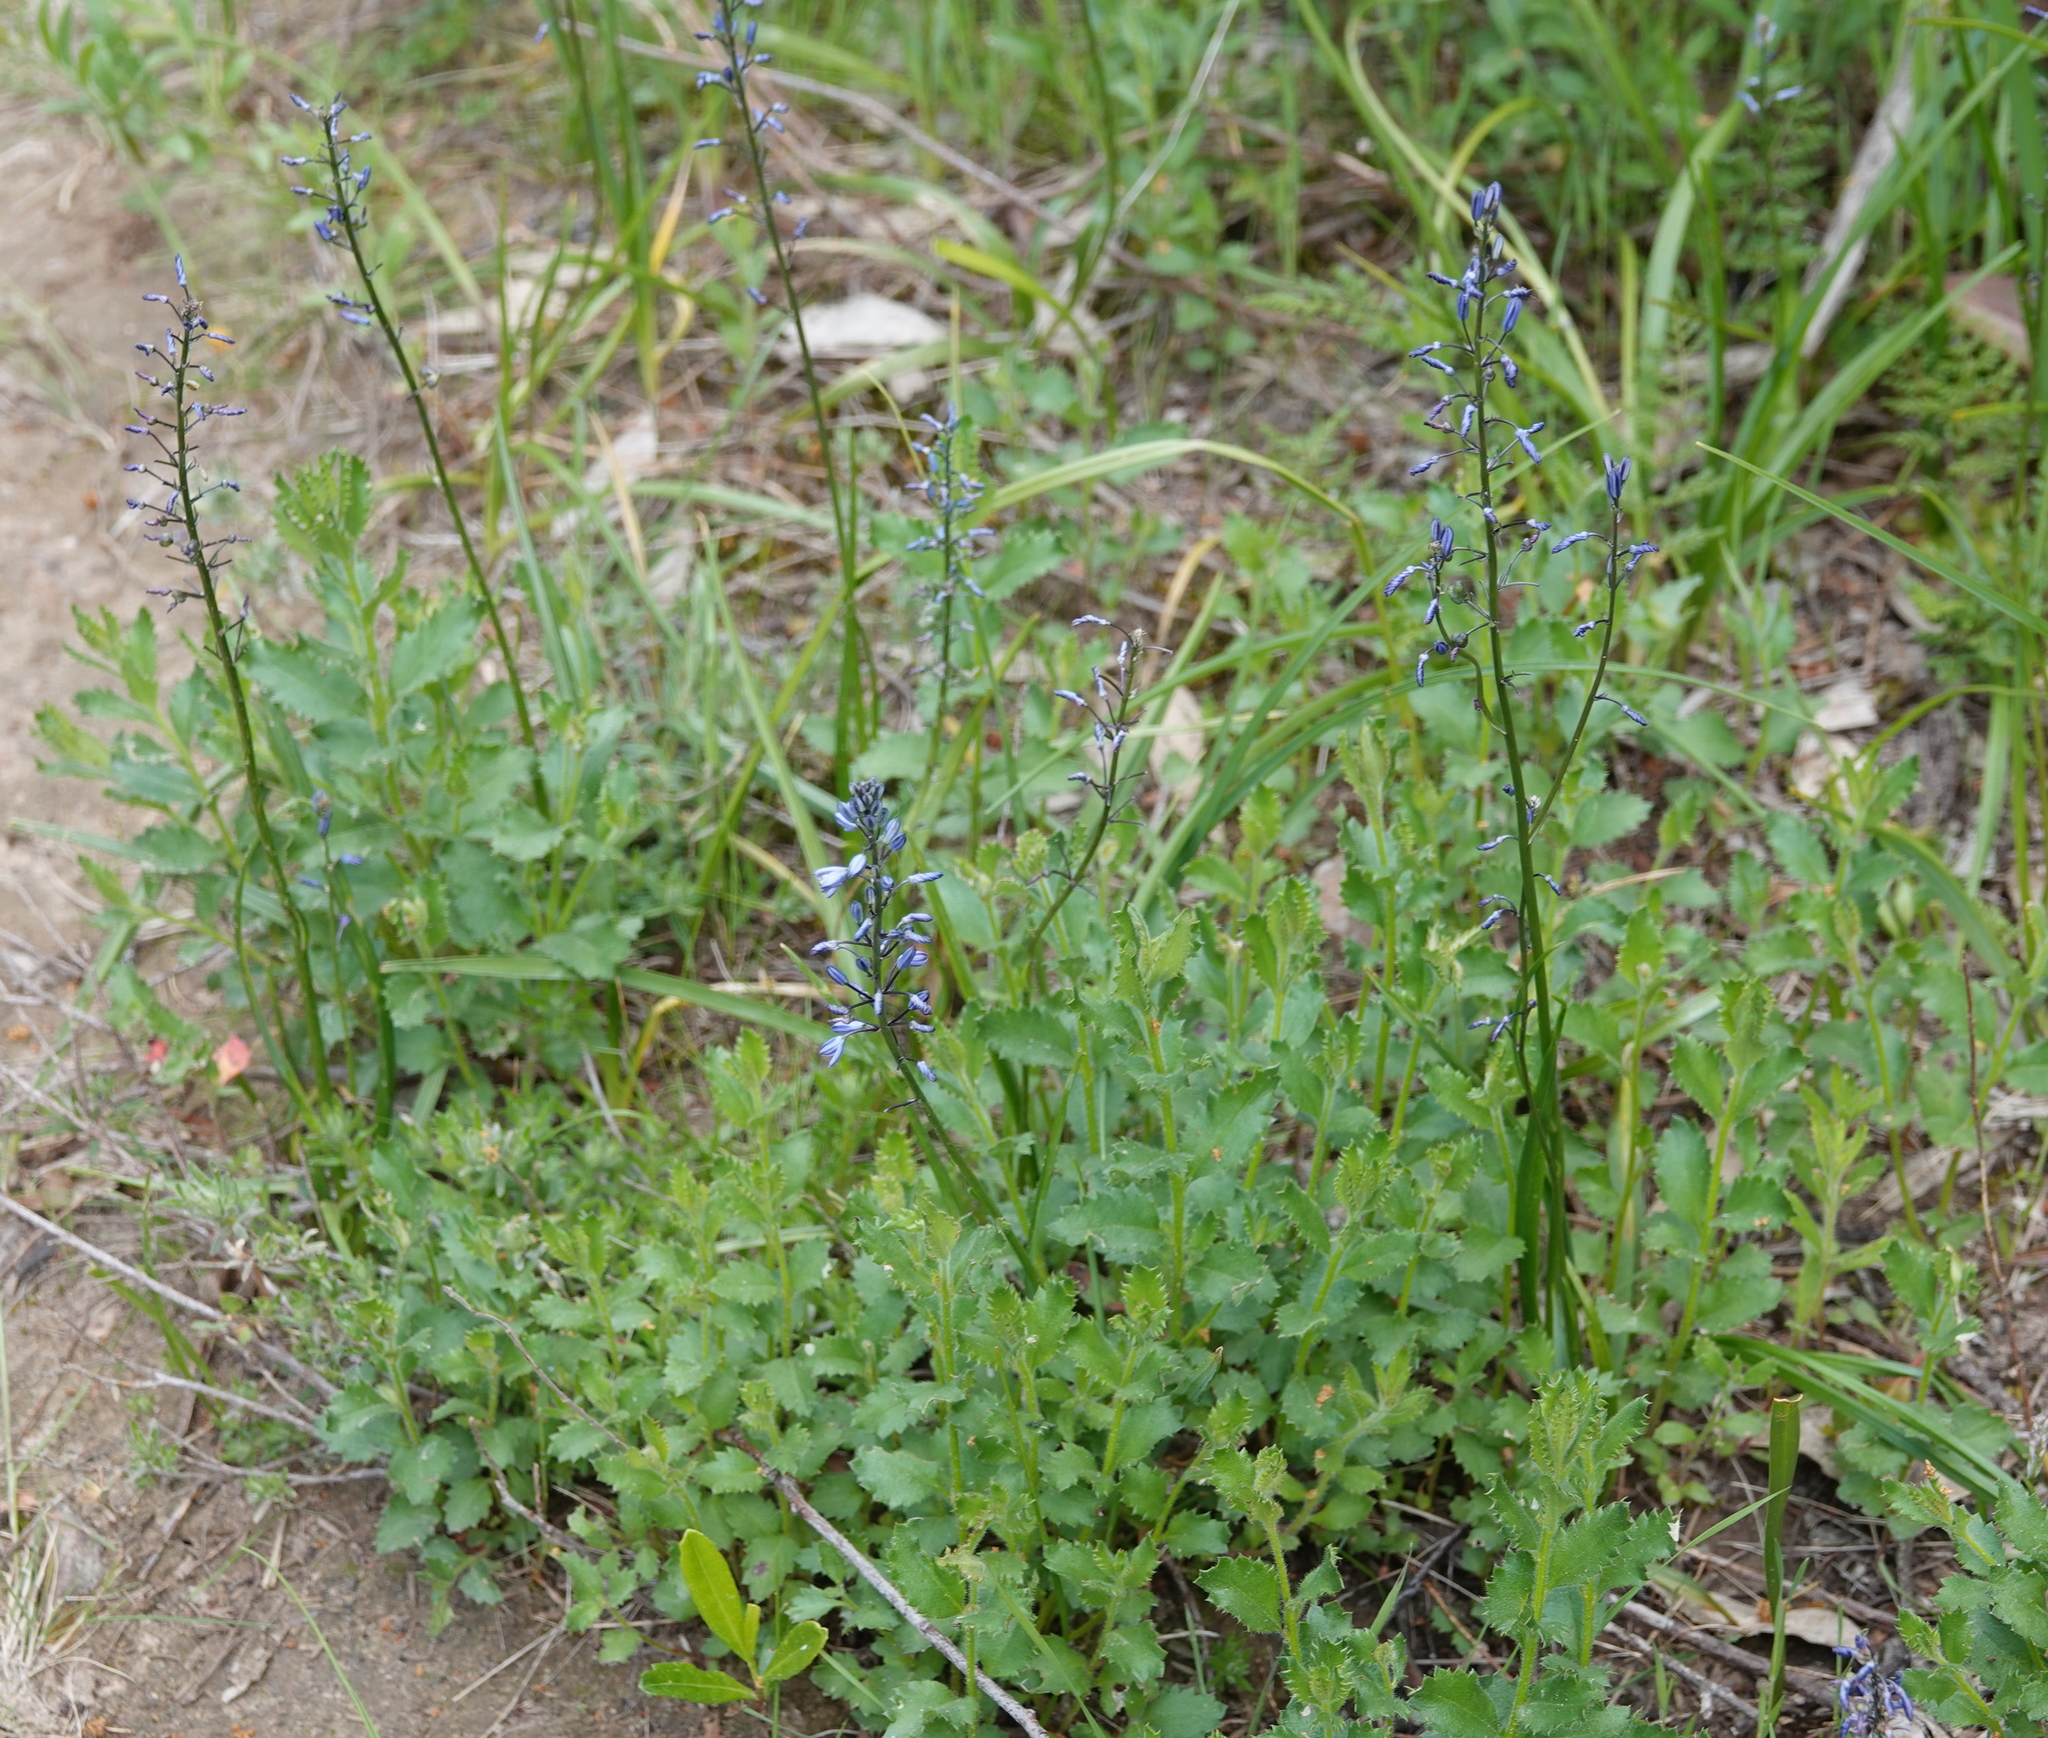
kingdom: Plantae
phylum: Tracheophyta
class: Liliopsida
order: Asparagales
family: Asphodelaceae
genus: Caesia
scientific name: Caesia calliantha
